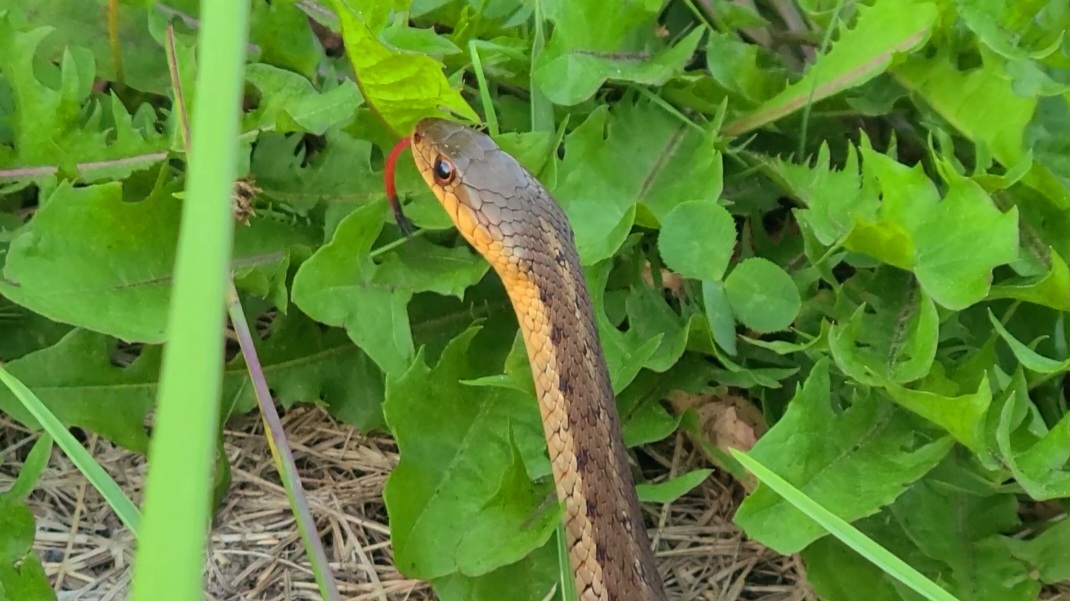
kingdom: Animalia
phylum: Chordata
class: Squamata
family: Colubridae
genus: Thamnophis
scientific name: Thamnophis sirtalis
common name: Common garter snake
